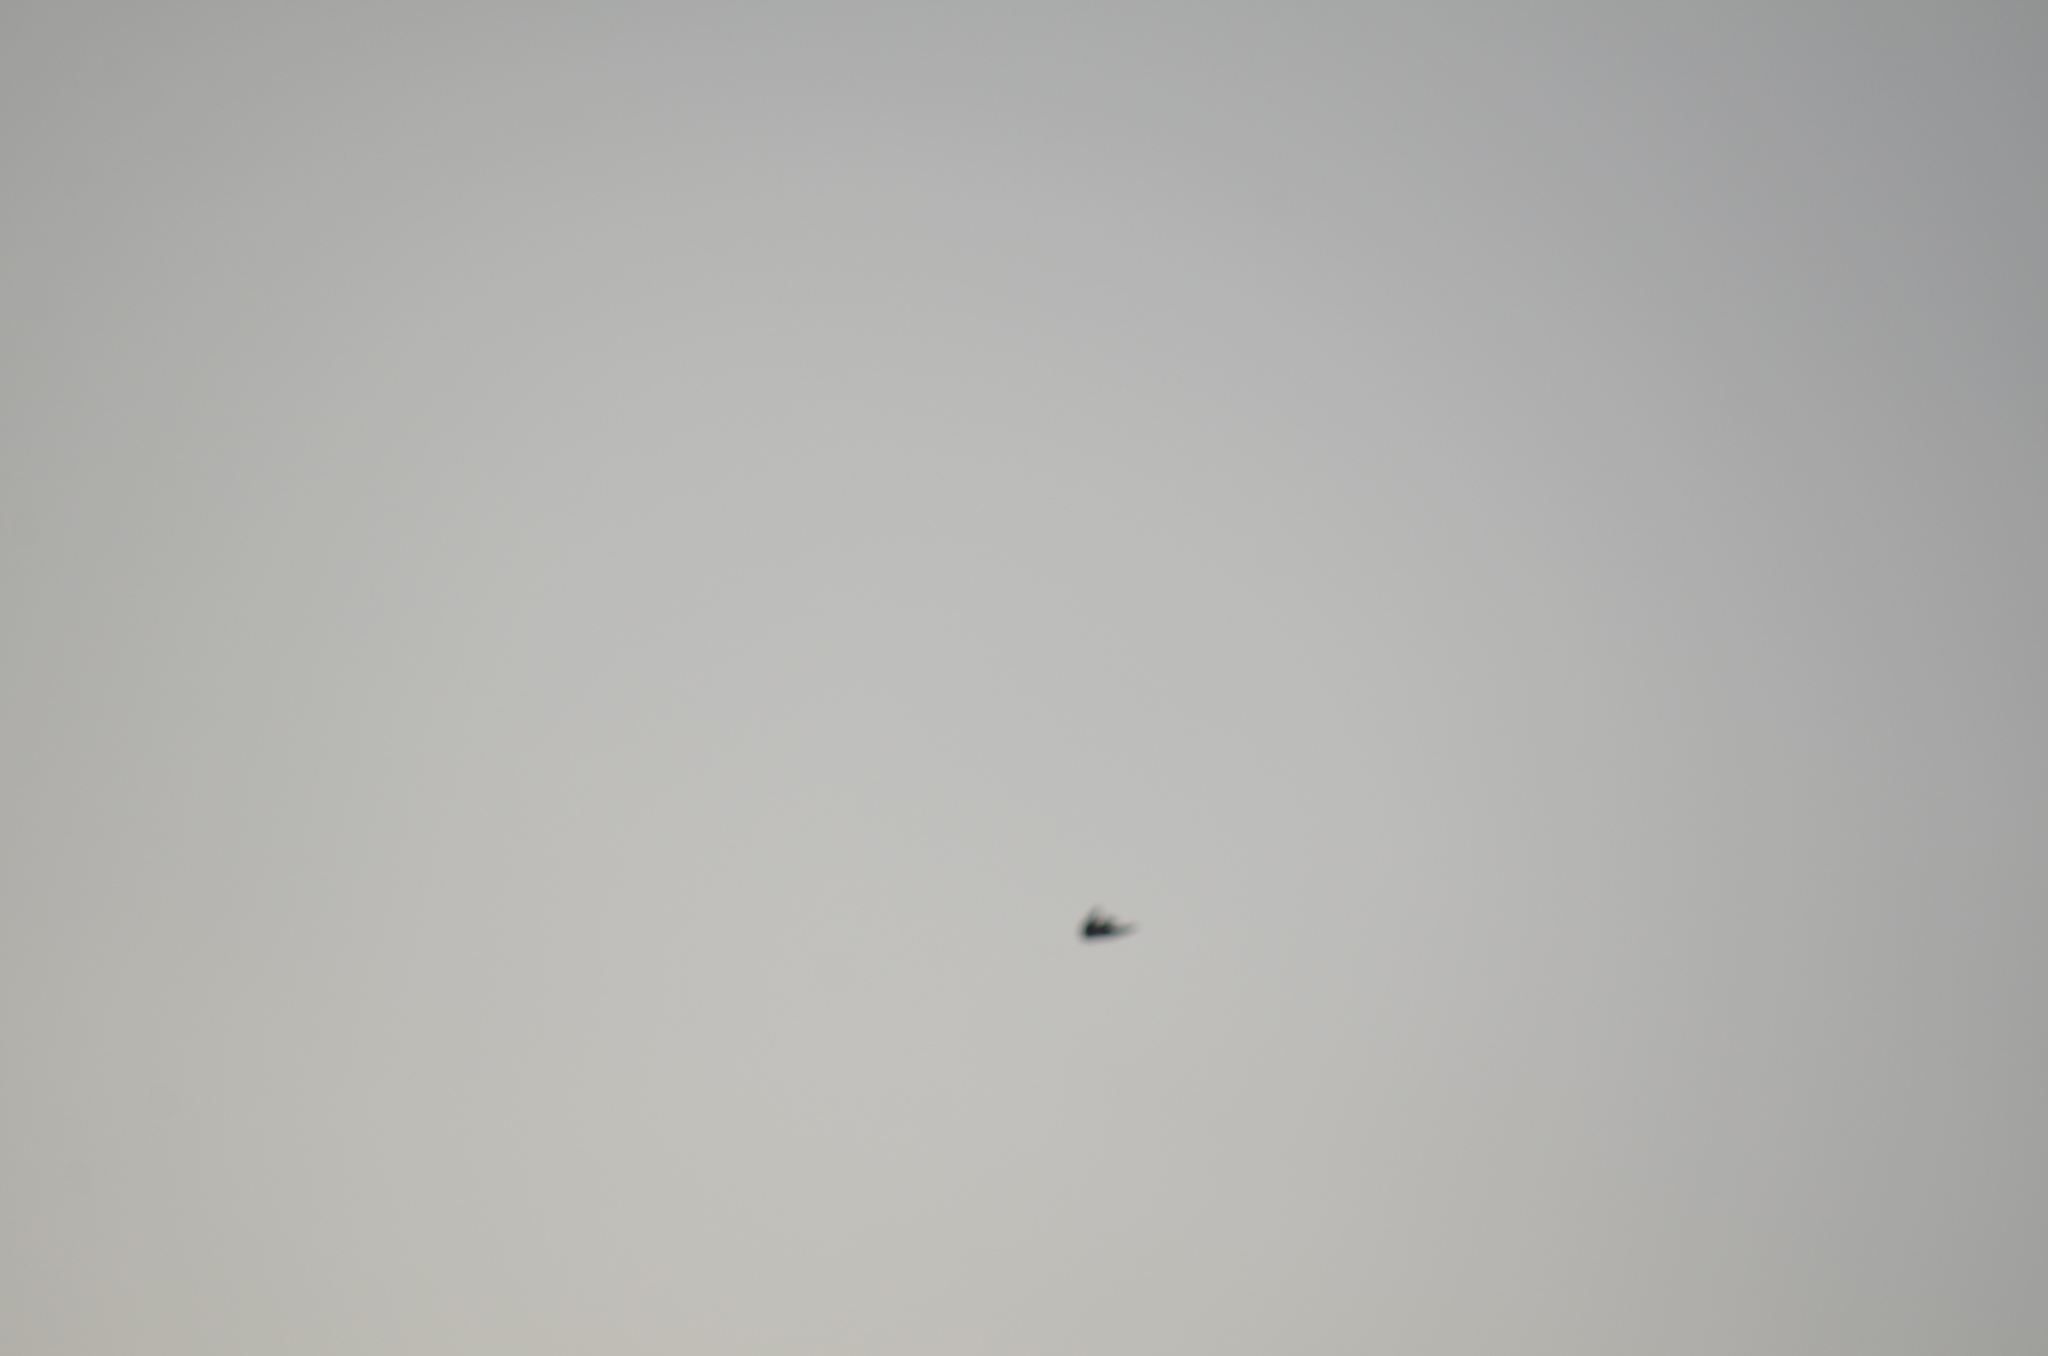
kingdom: Animalia
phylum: Chordata
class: Aves
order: Passeriformes
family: Hirundinidae
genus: Tachycineta
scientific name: Tachycineta thalassina
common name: Violet-green swallow
